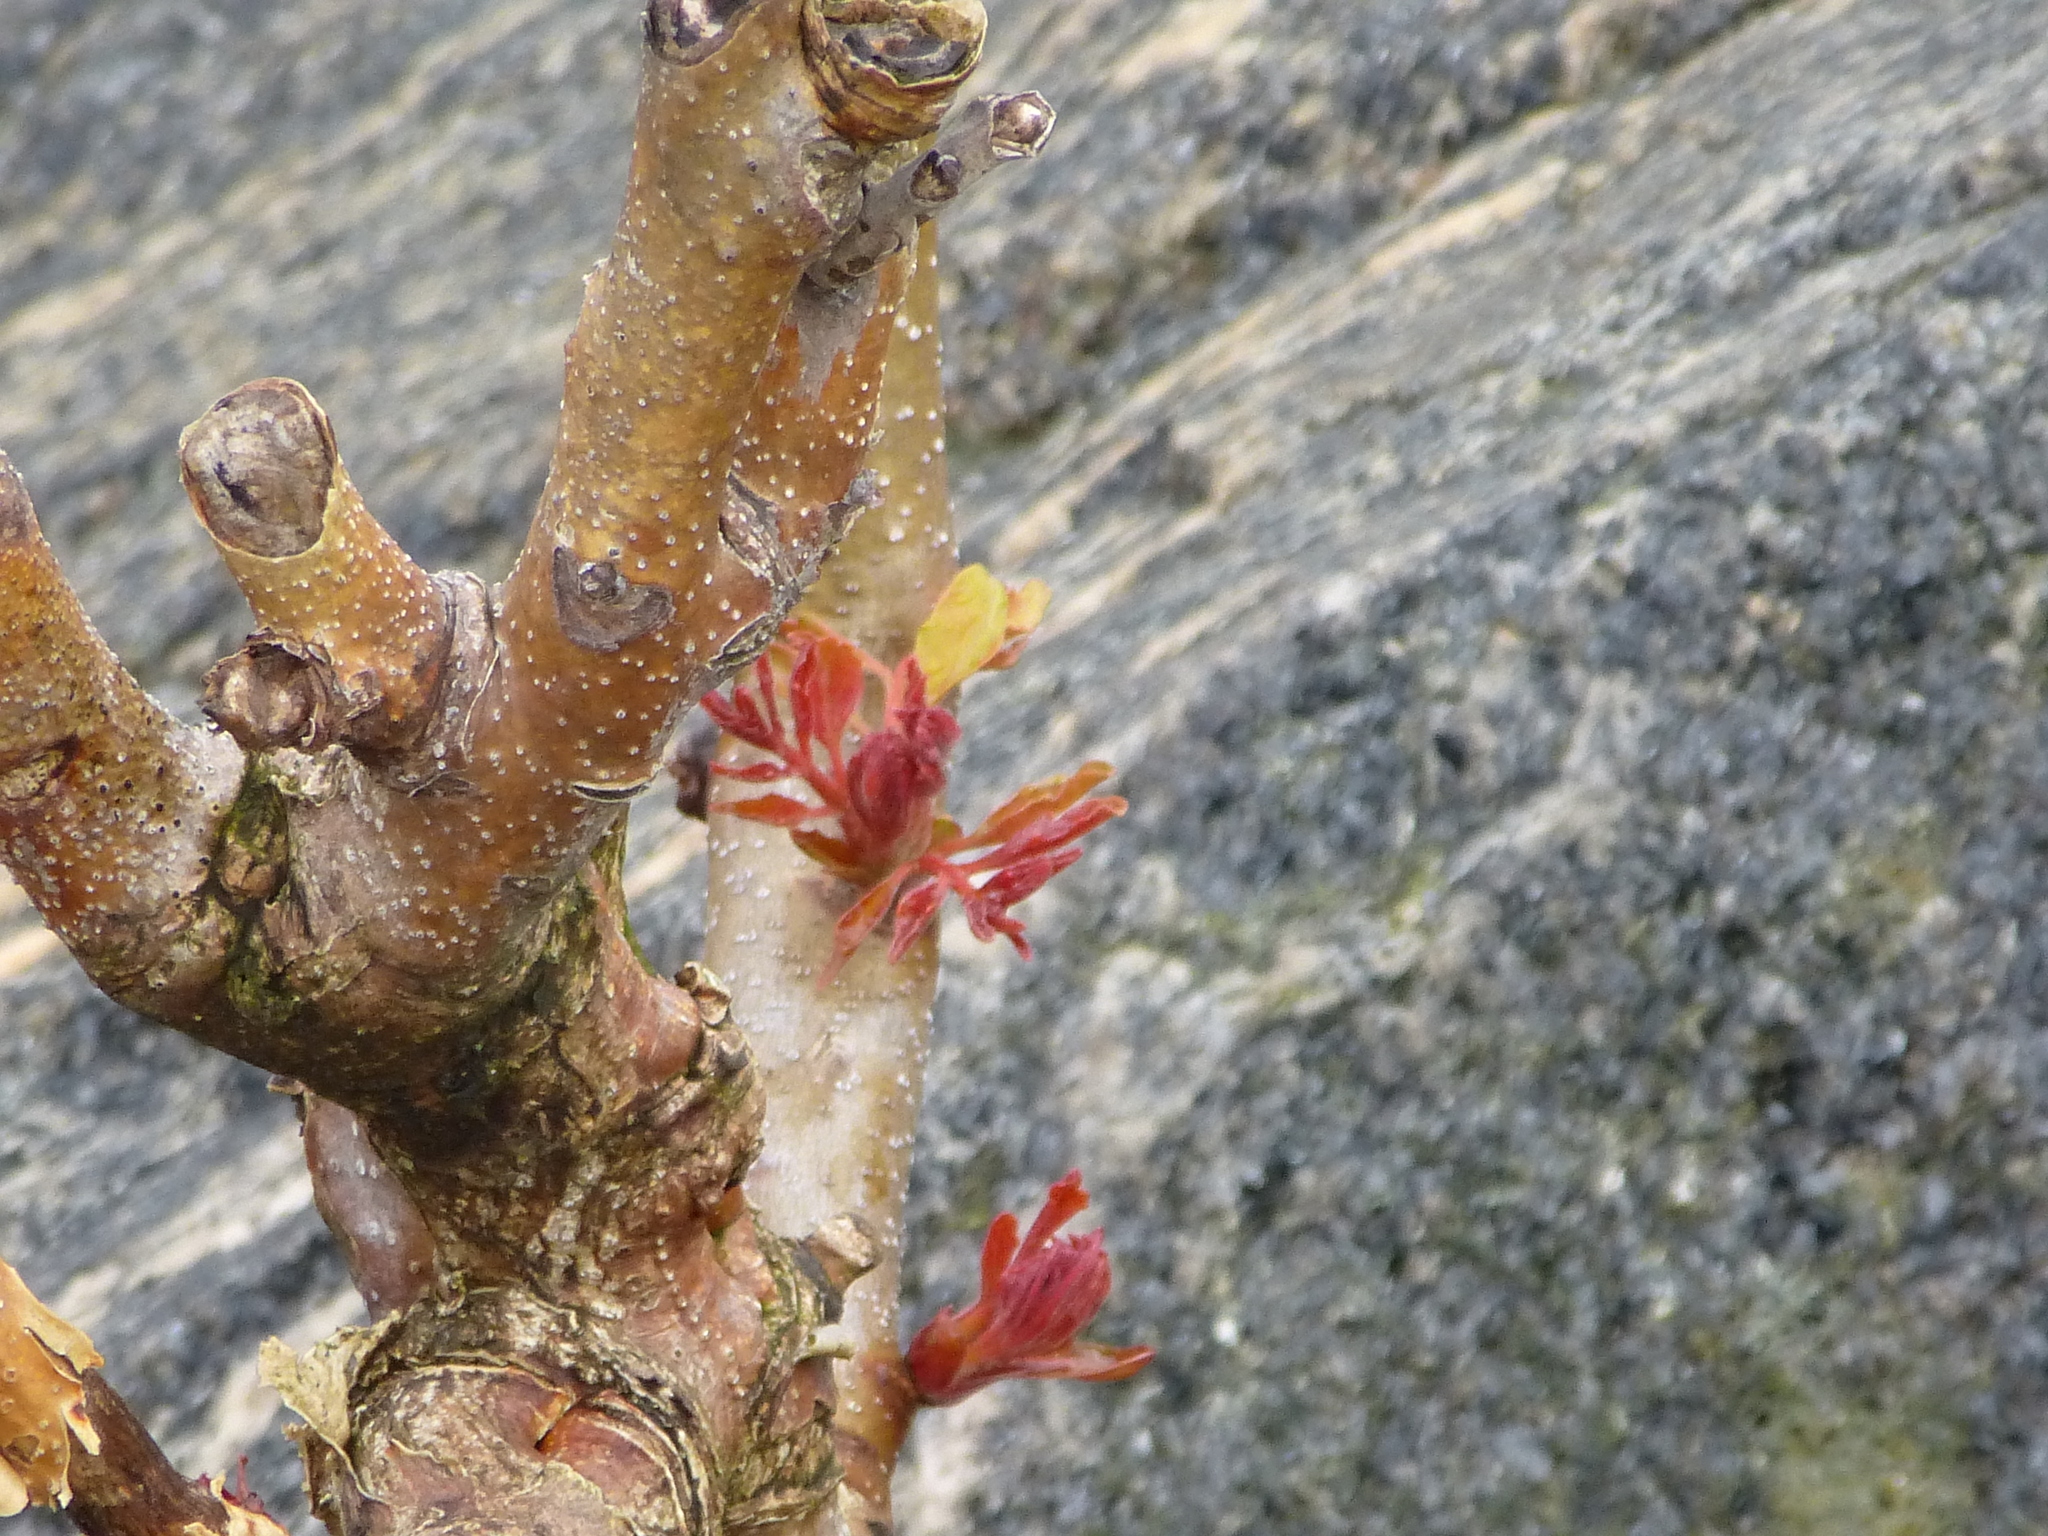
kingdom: Plantae
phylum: Tracheophyta
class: Magnoliopsida
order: Sapindales
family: Simaroubaceae
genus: Ailanthus
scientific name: Ailanthus altissima
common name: Tree-of-heaven
